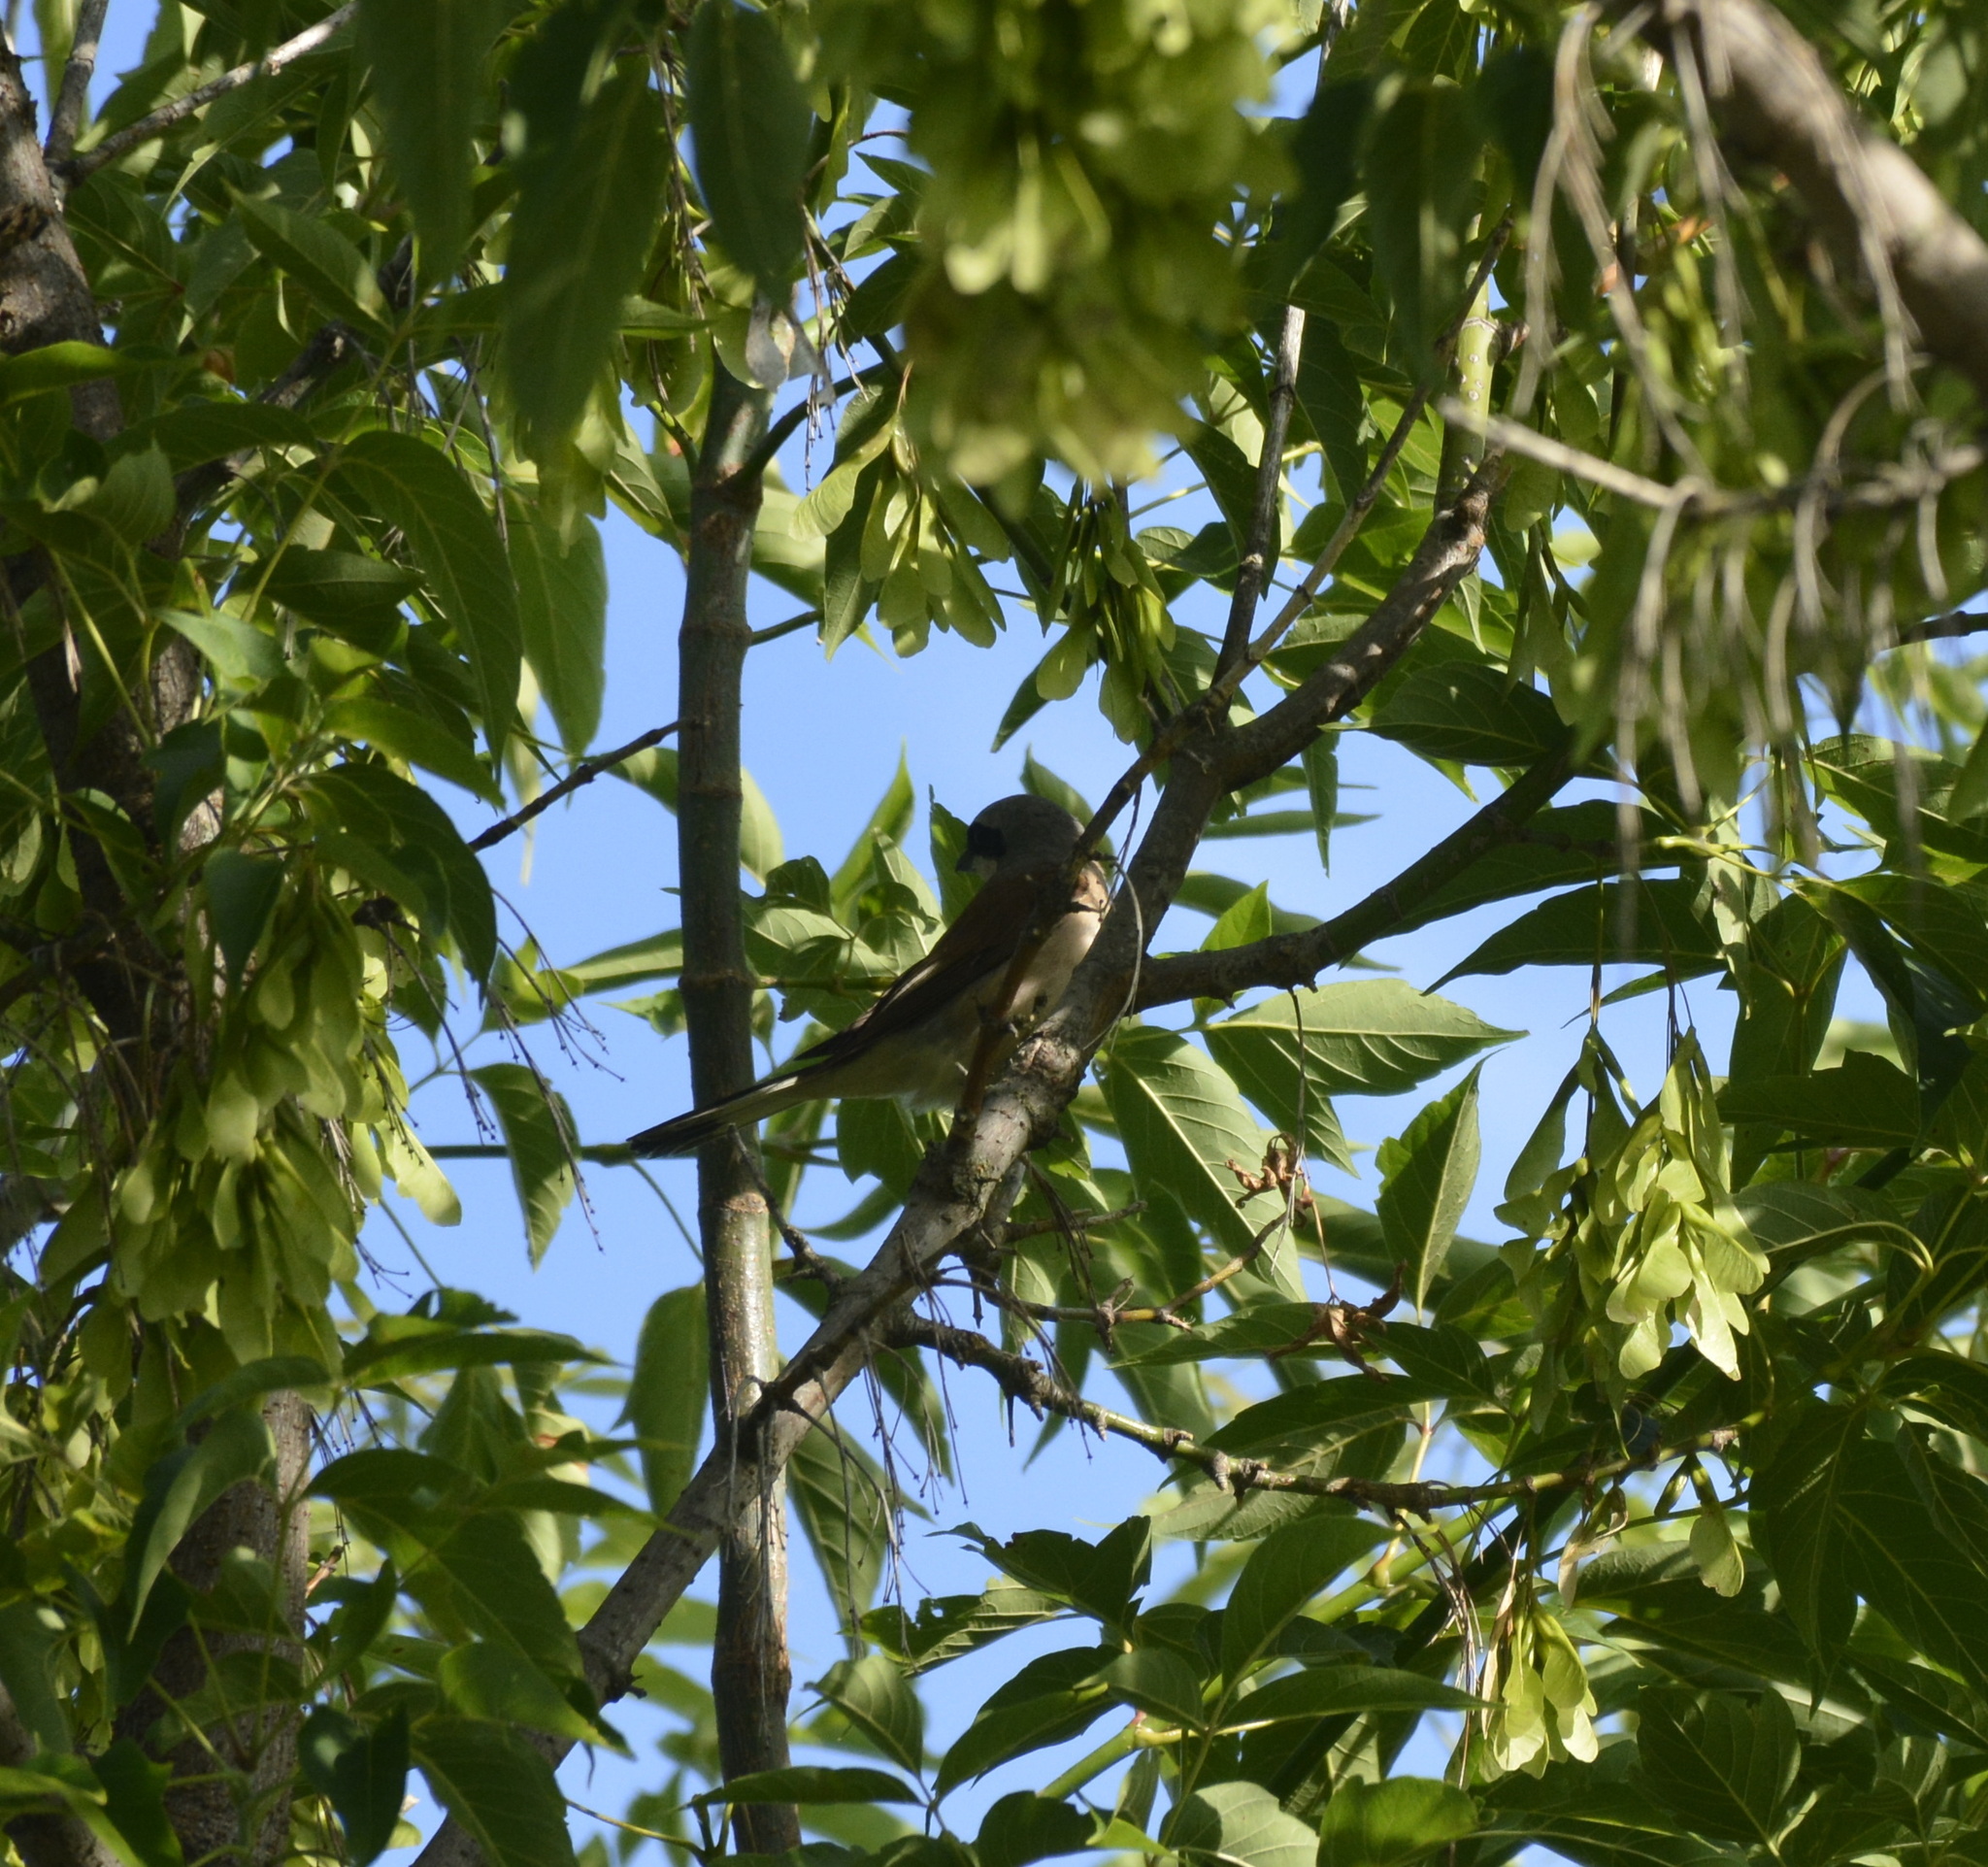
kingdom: Animalia
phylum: Chordata
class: Aves
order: Passeriformes
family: Laniidae
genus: Lanius
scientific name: Lanius collurio
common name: Red-backed shrike
